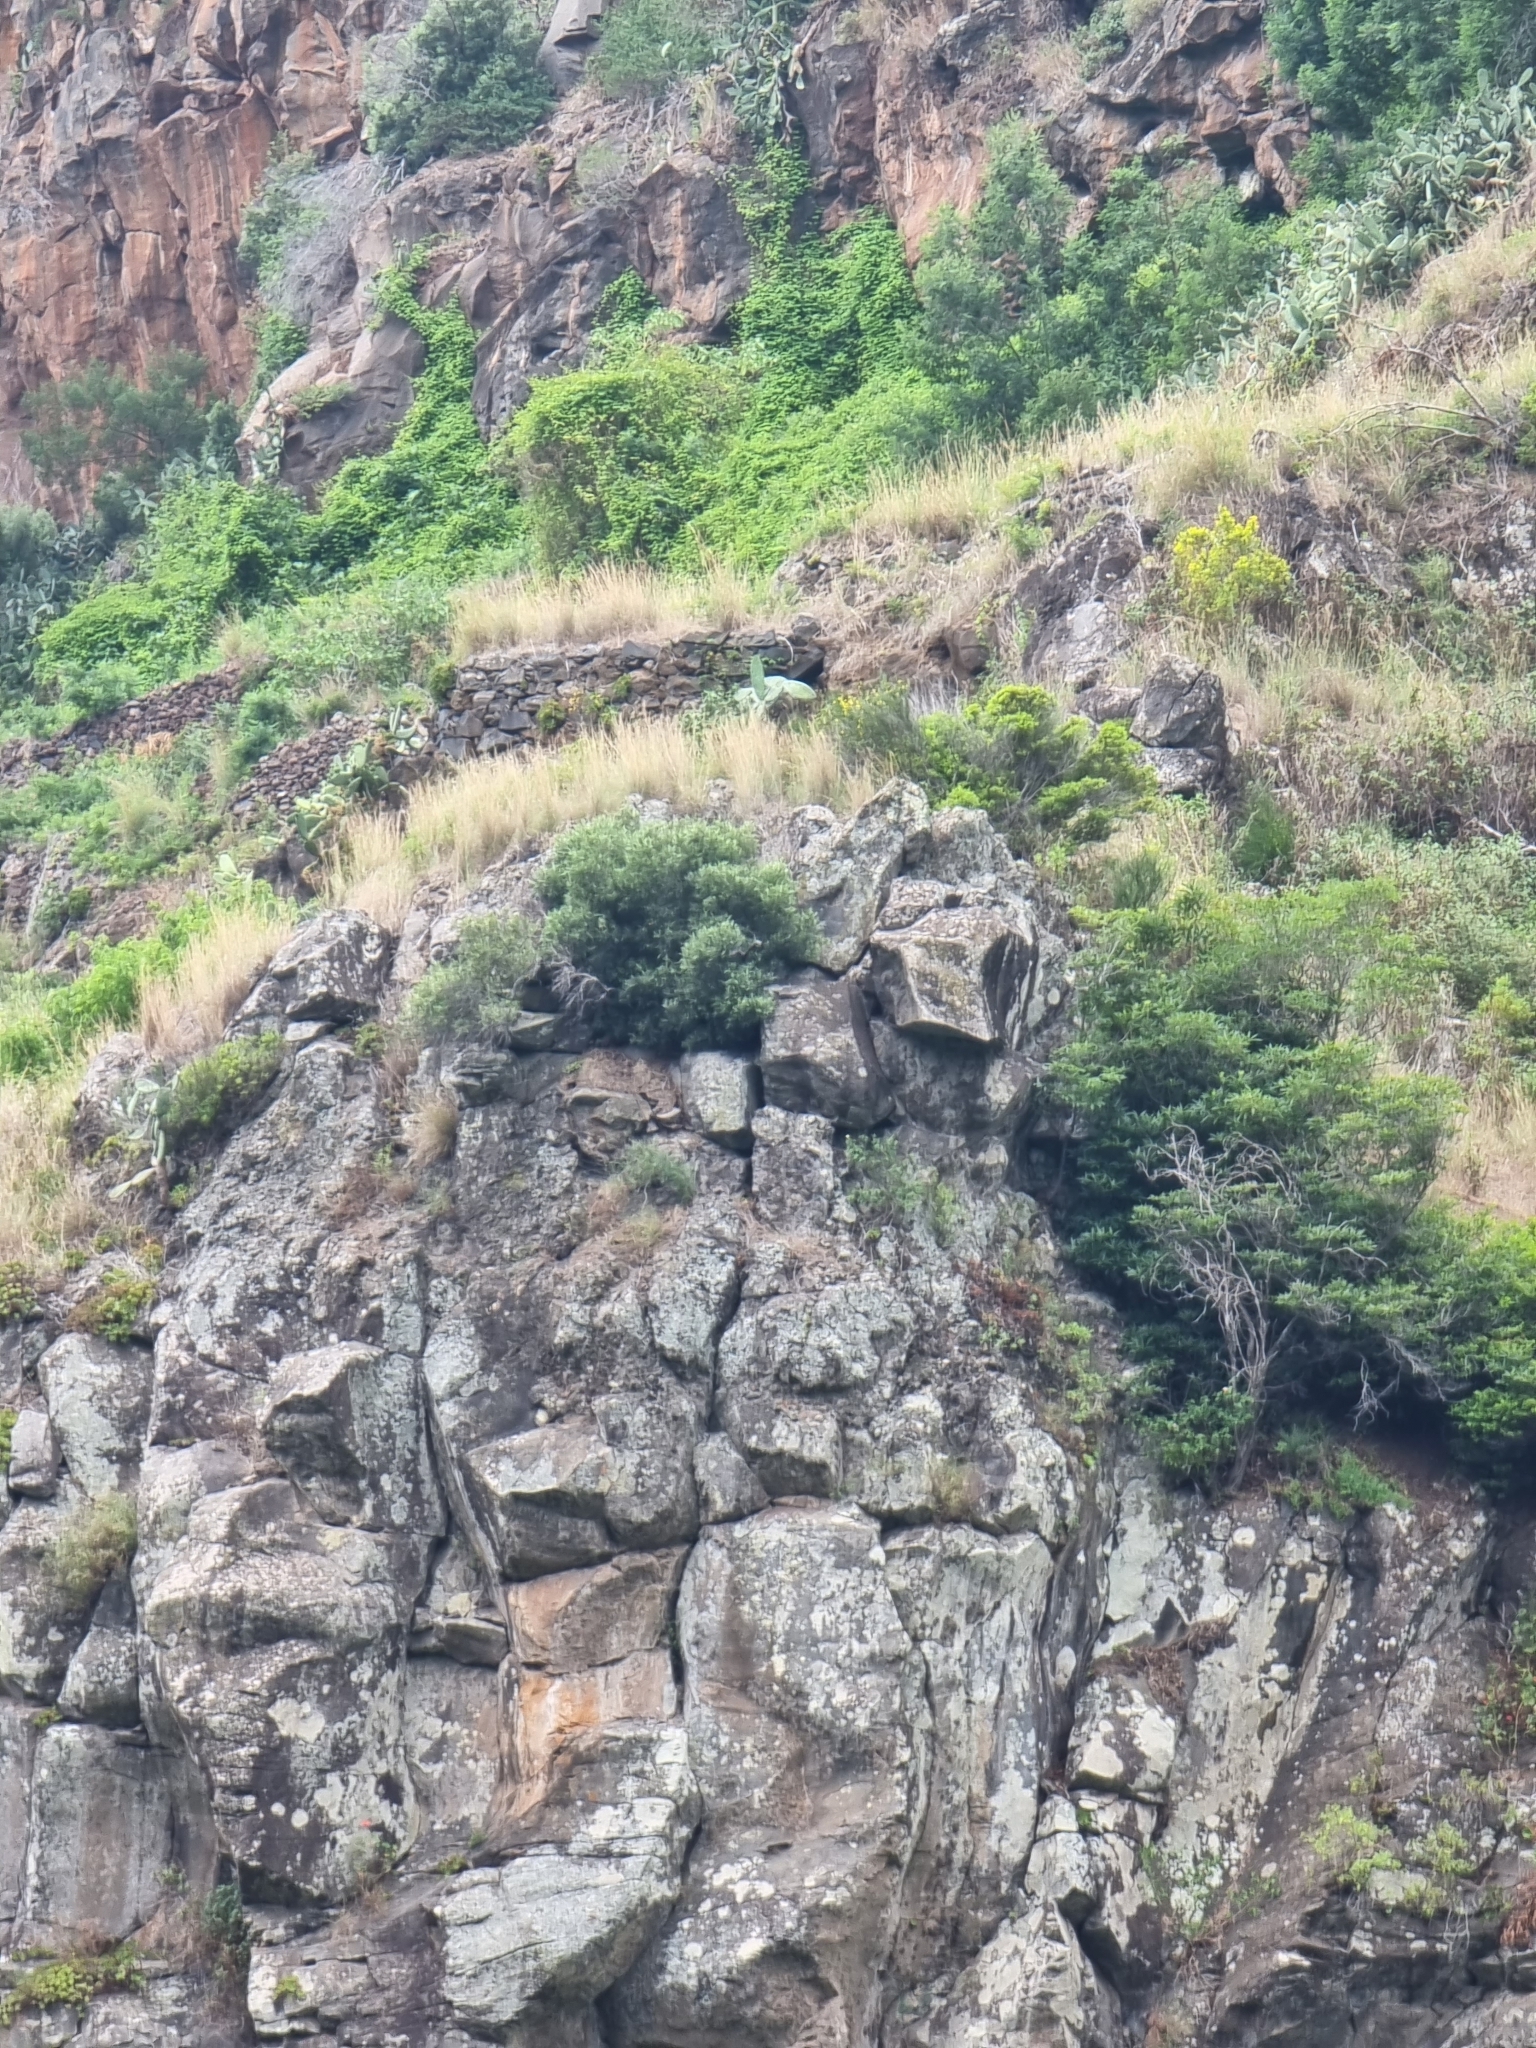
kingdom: Plantae
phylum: Tracheophyta
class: Magnoliopsida
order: Lamiales
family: Oleaceae
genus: Olea
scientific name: Olea europaea
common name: Olive
